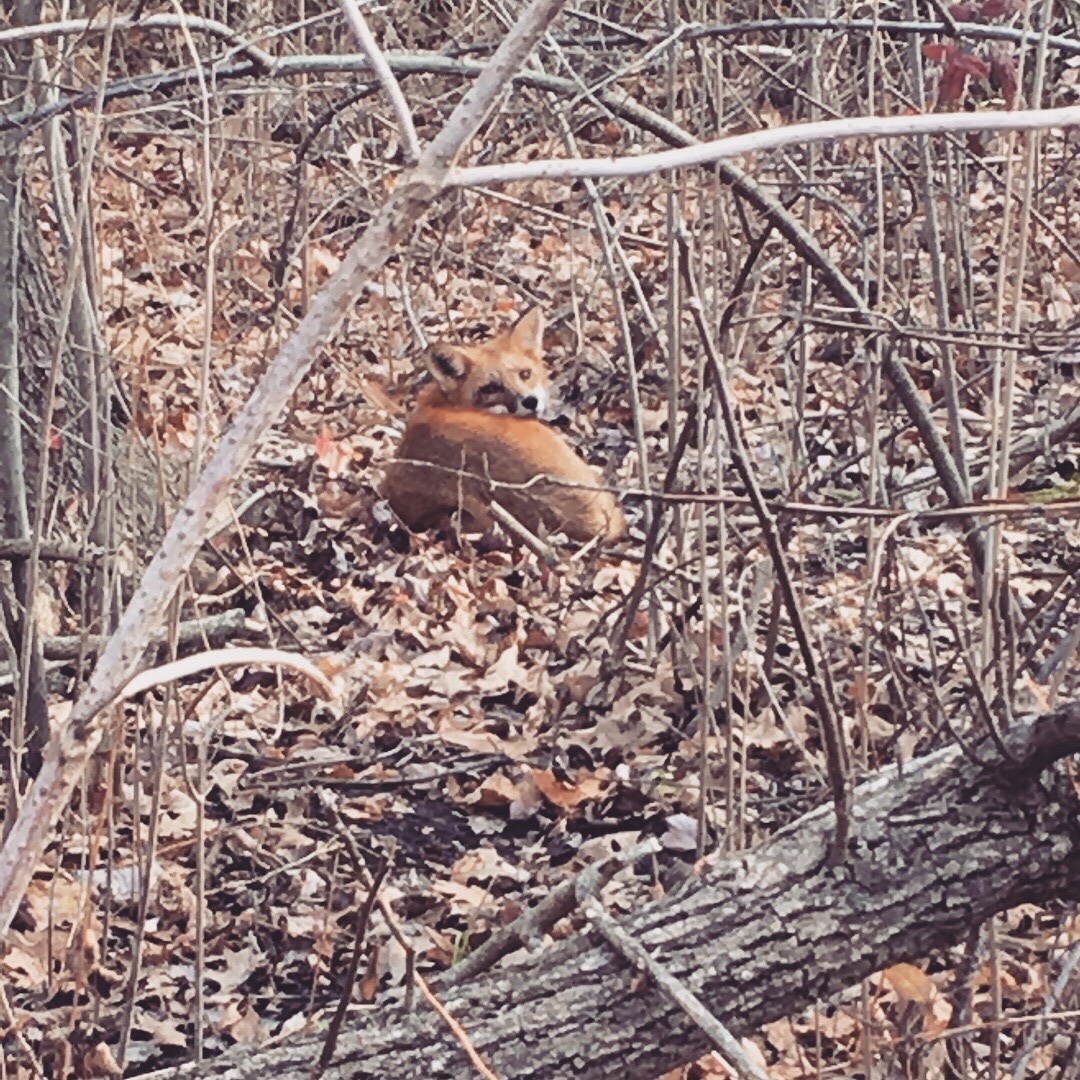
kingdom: Animalia
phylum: Chordata
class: Mammalia
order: Carnivora
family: Canidae
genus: Vulpes
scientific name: Vulpes vulpes
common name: Red fox
